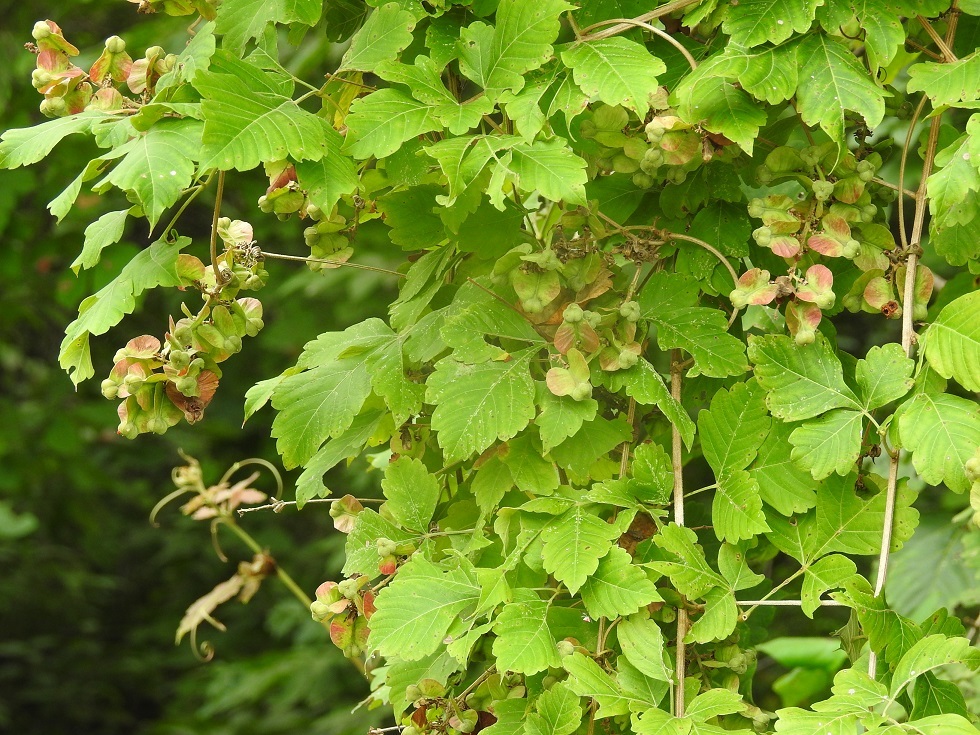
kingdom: Plantae
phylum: Tracheophyta
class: Magnoliopsida
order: Sapindales
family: Sapindaceae
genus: Serjania
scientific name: Serjania cardiospermoides
